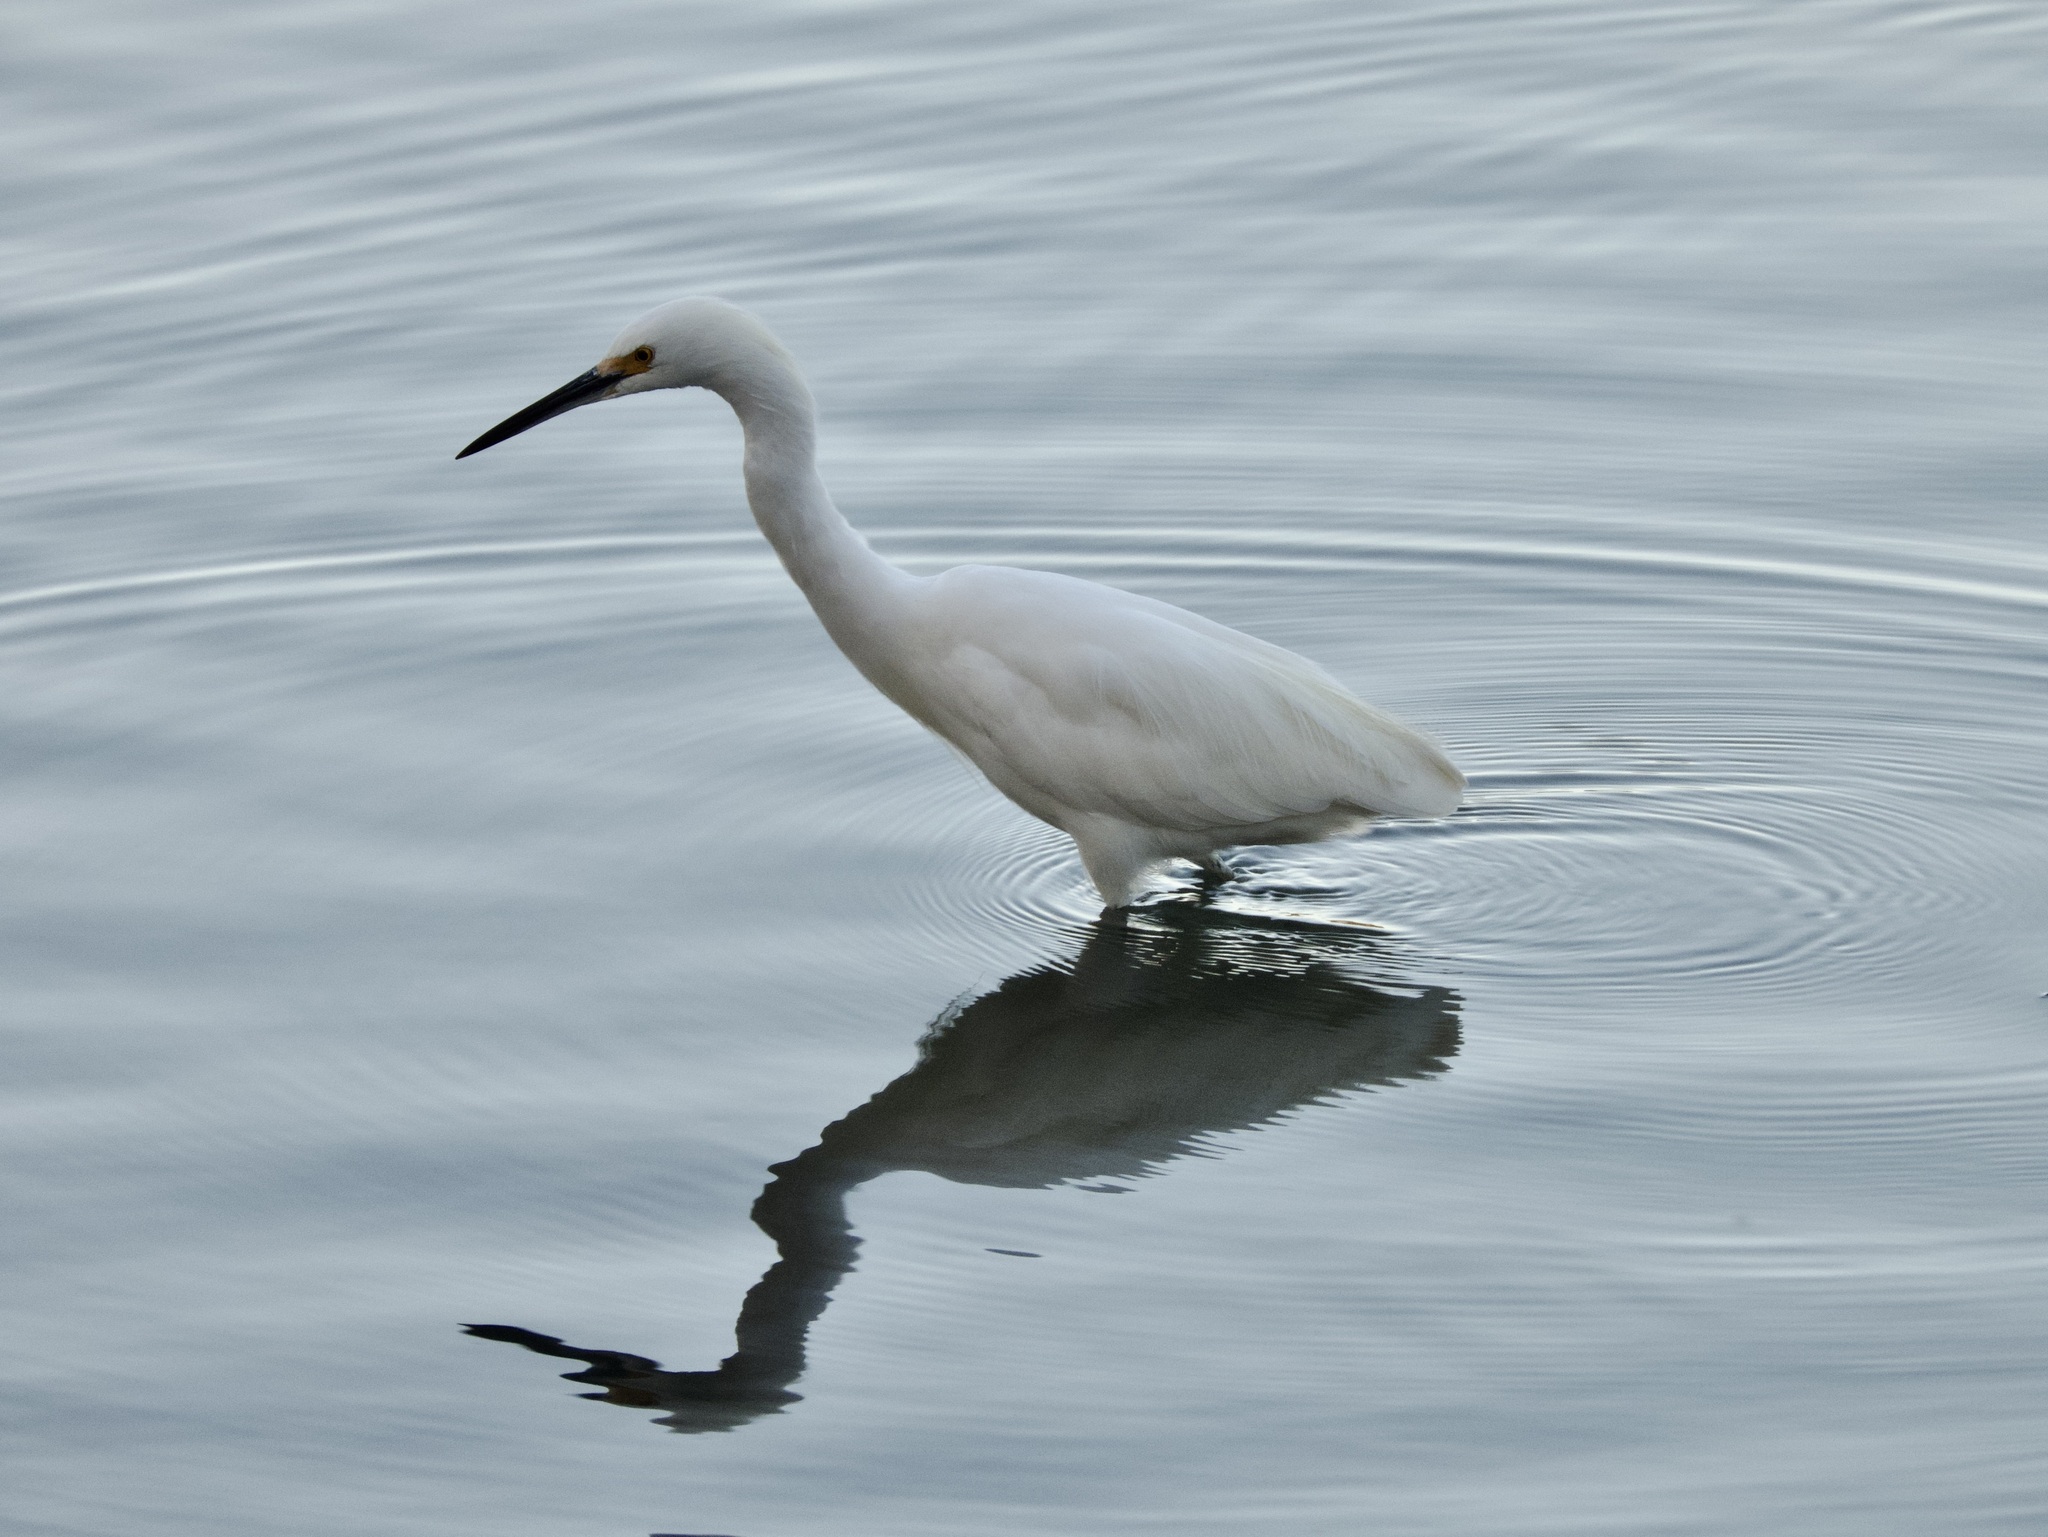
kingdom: Animalia
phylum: Chordata
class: Aves
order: Pelecaniformes
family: Ardeidae
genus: Egretta
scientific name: Egretta thula
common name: Snowy egret
